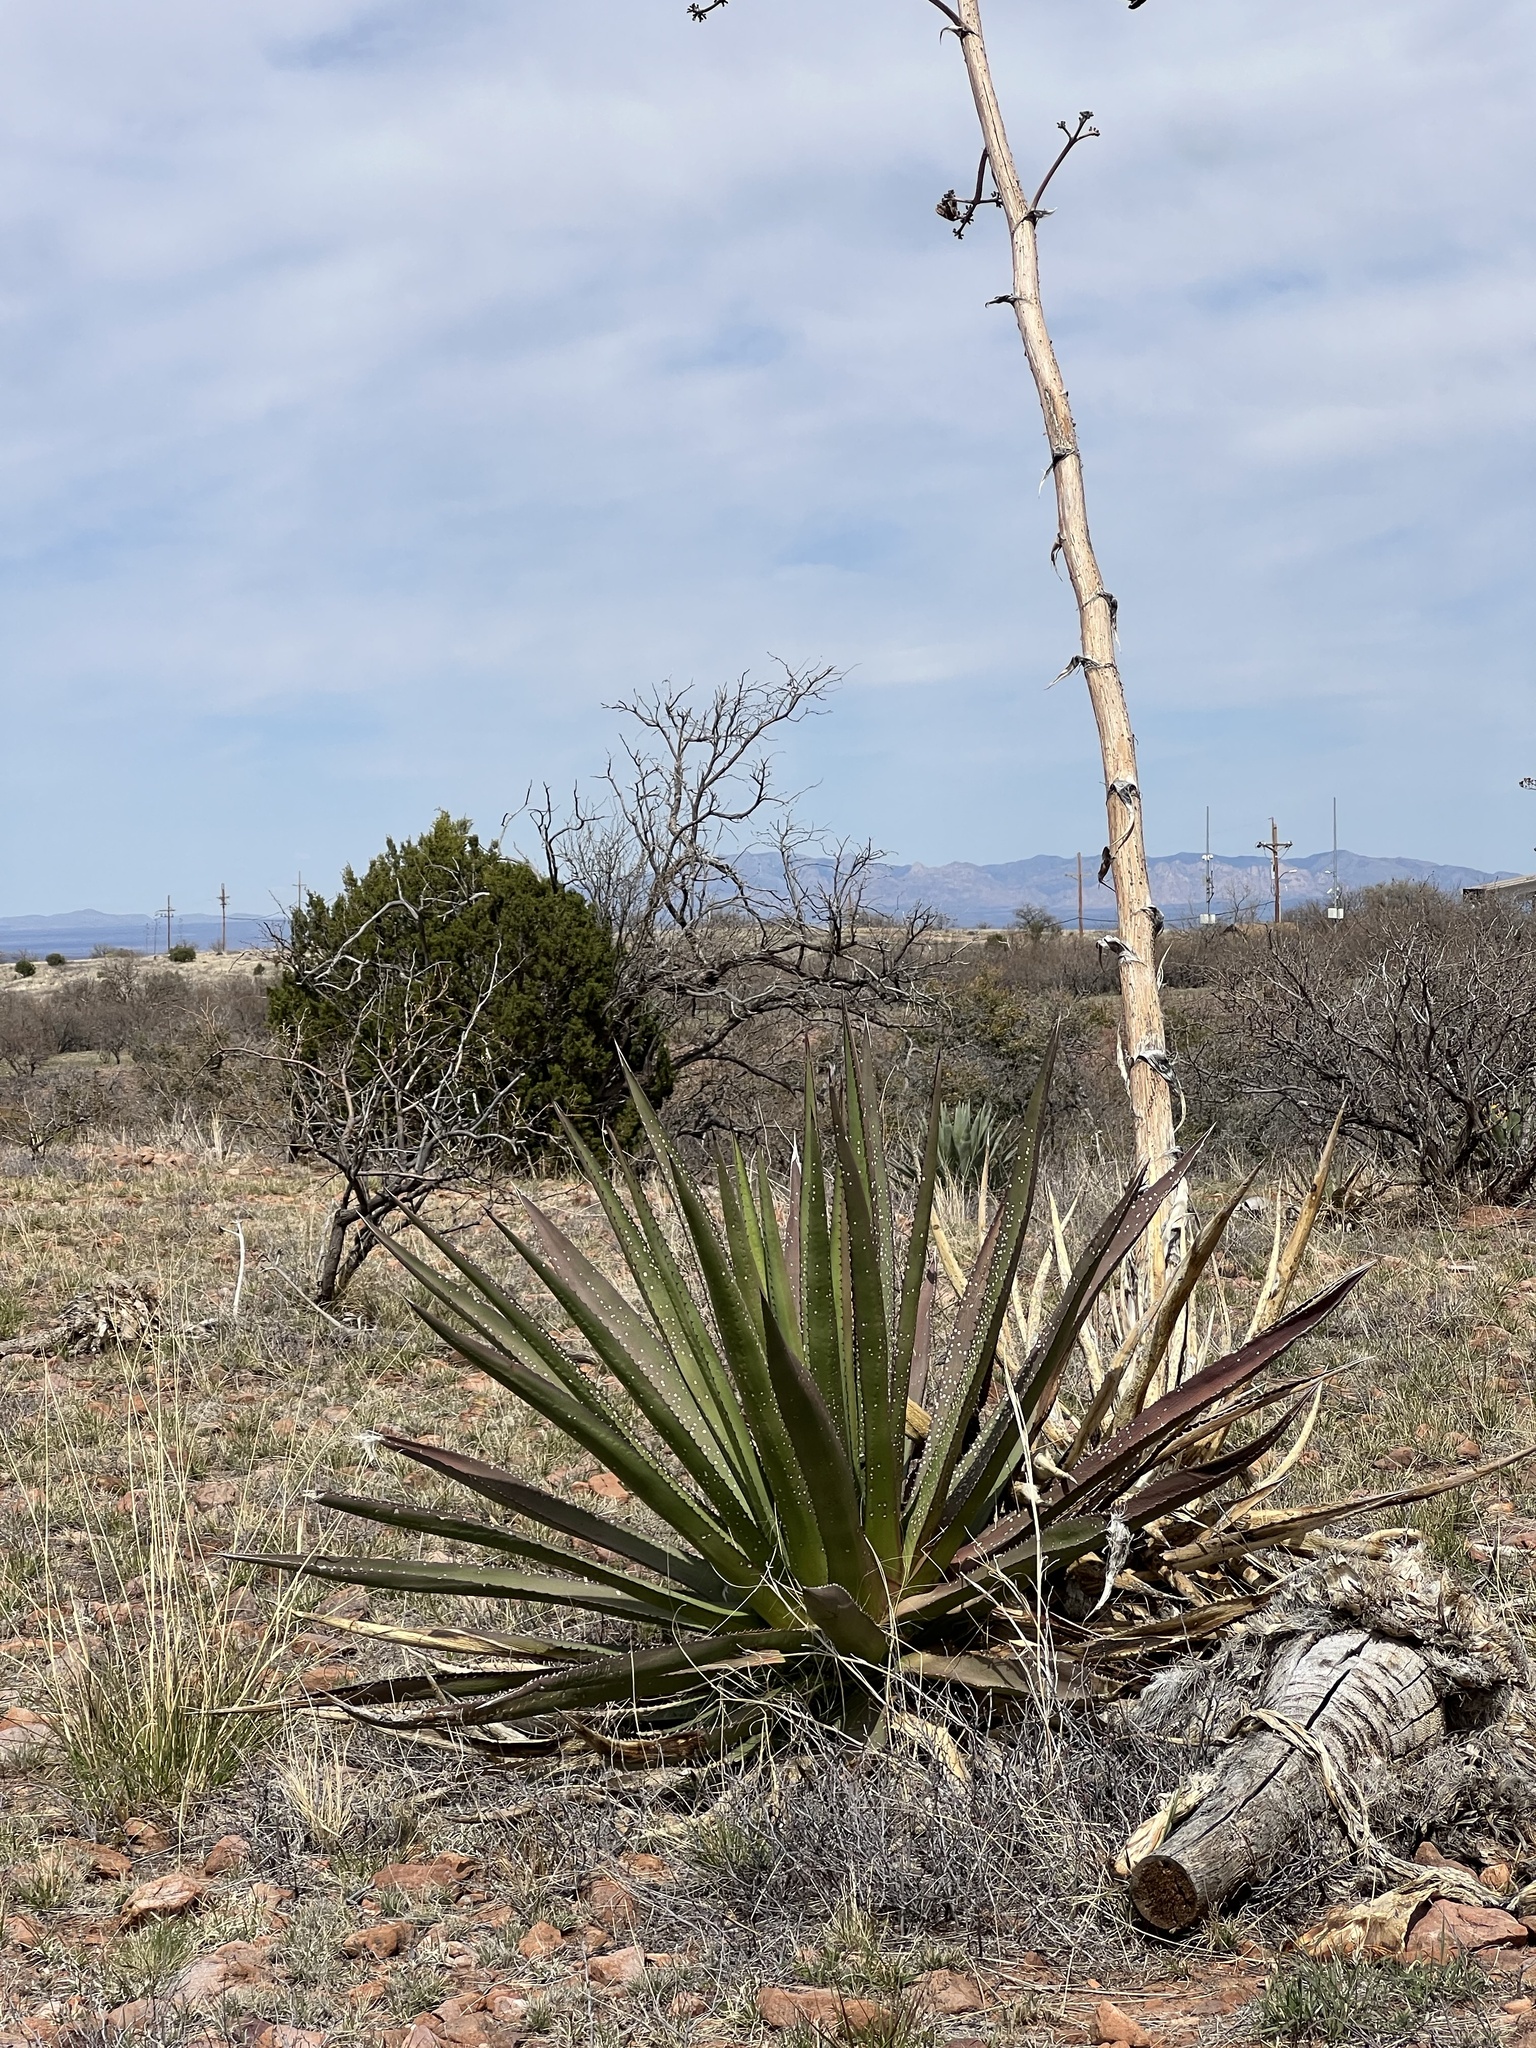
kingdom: Plantae
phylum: Tracheophyta
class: Liliopsida
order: Asparagales
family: Asparagaceae
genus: Agave
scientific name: Agave palmeri
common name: Palmer agave
